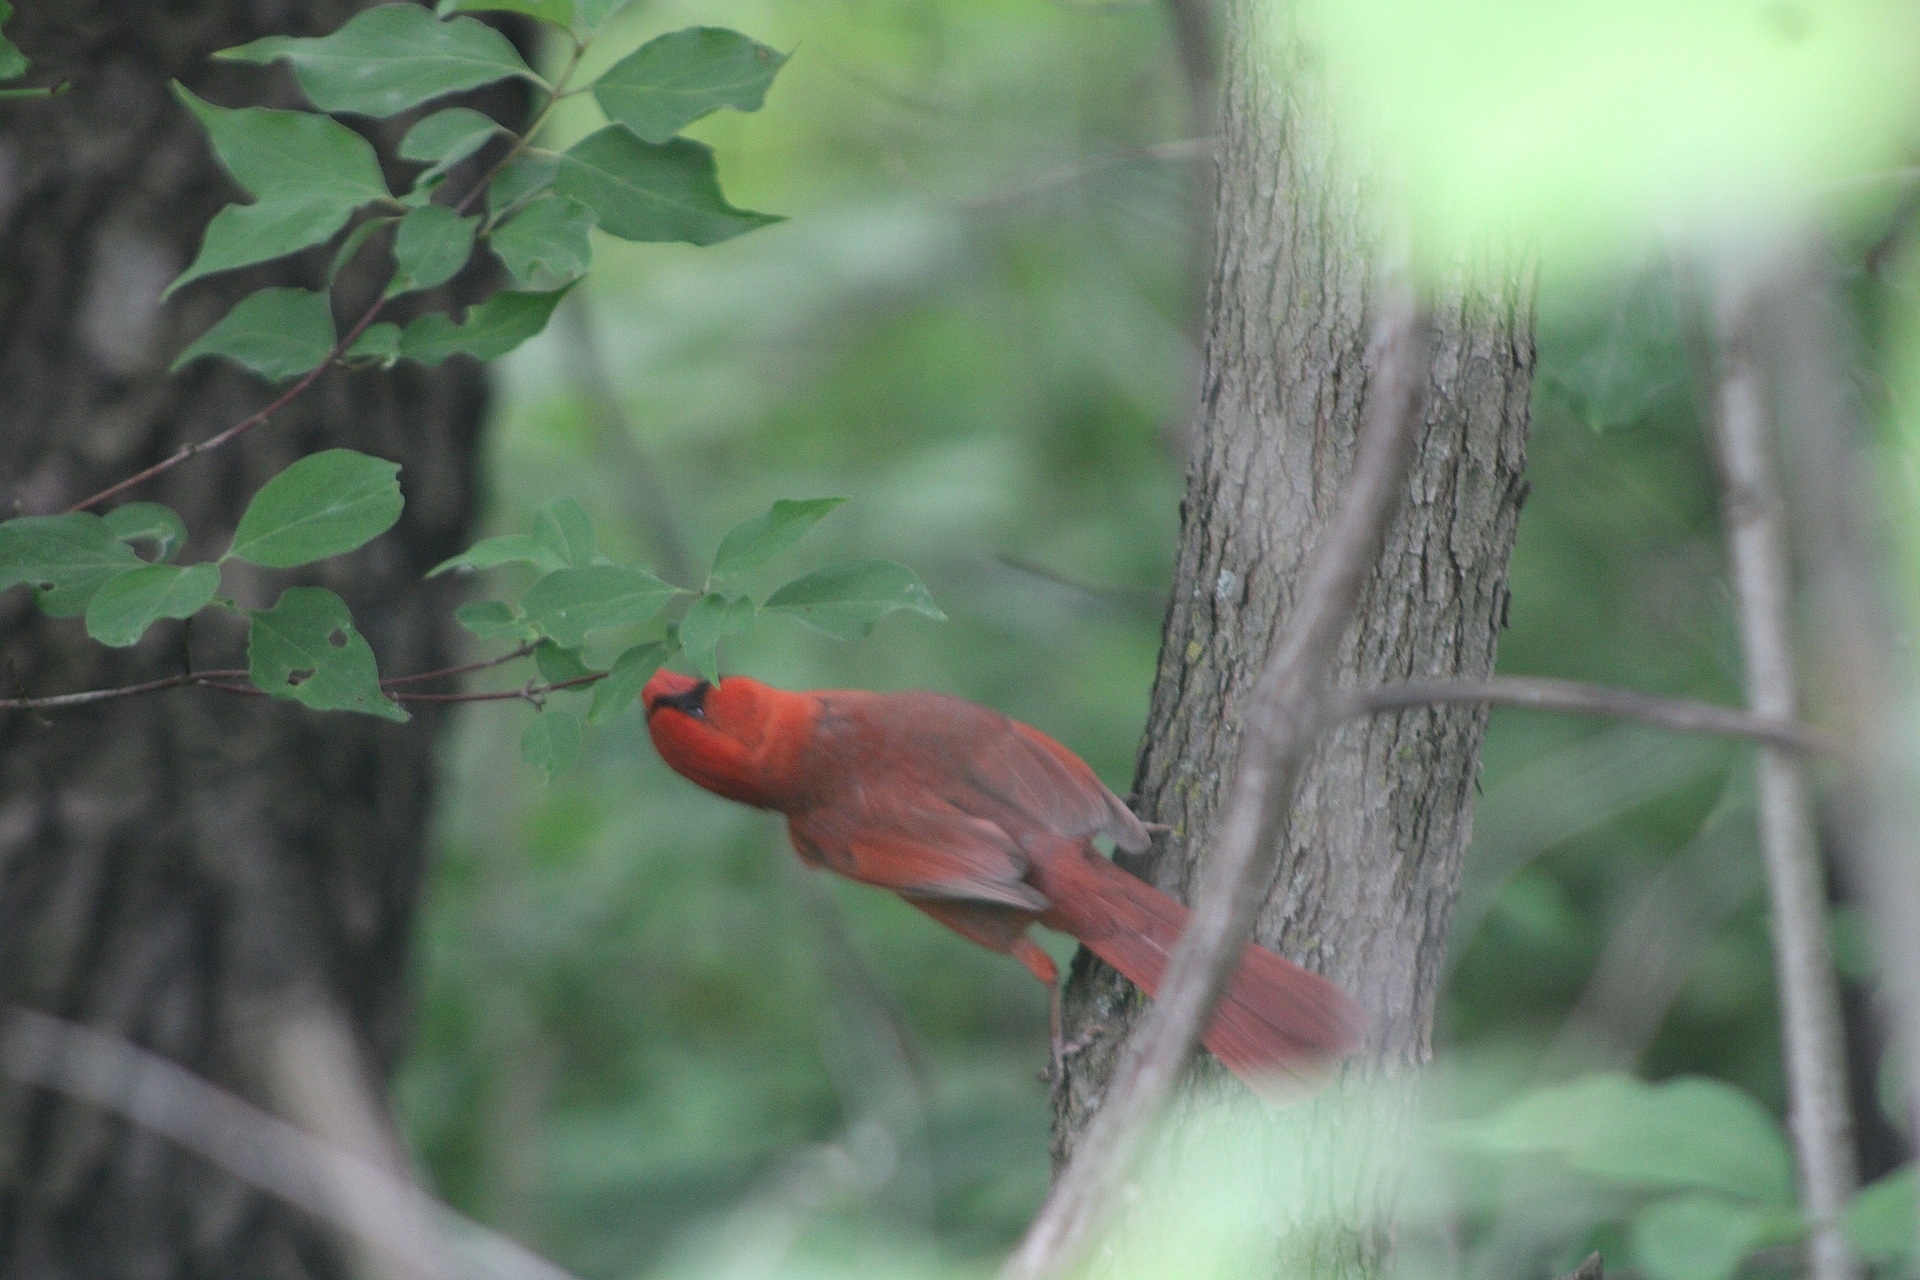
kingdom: Animalia
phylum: Chordata
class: Aves
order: Passeriformes
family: Cardinalidae
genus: Cardinalis
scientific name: Cardinalis cardinalis
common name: Northern cardinal
